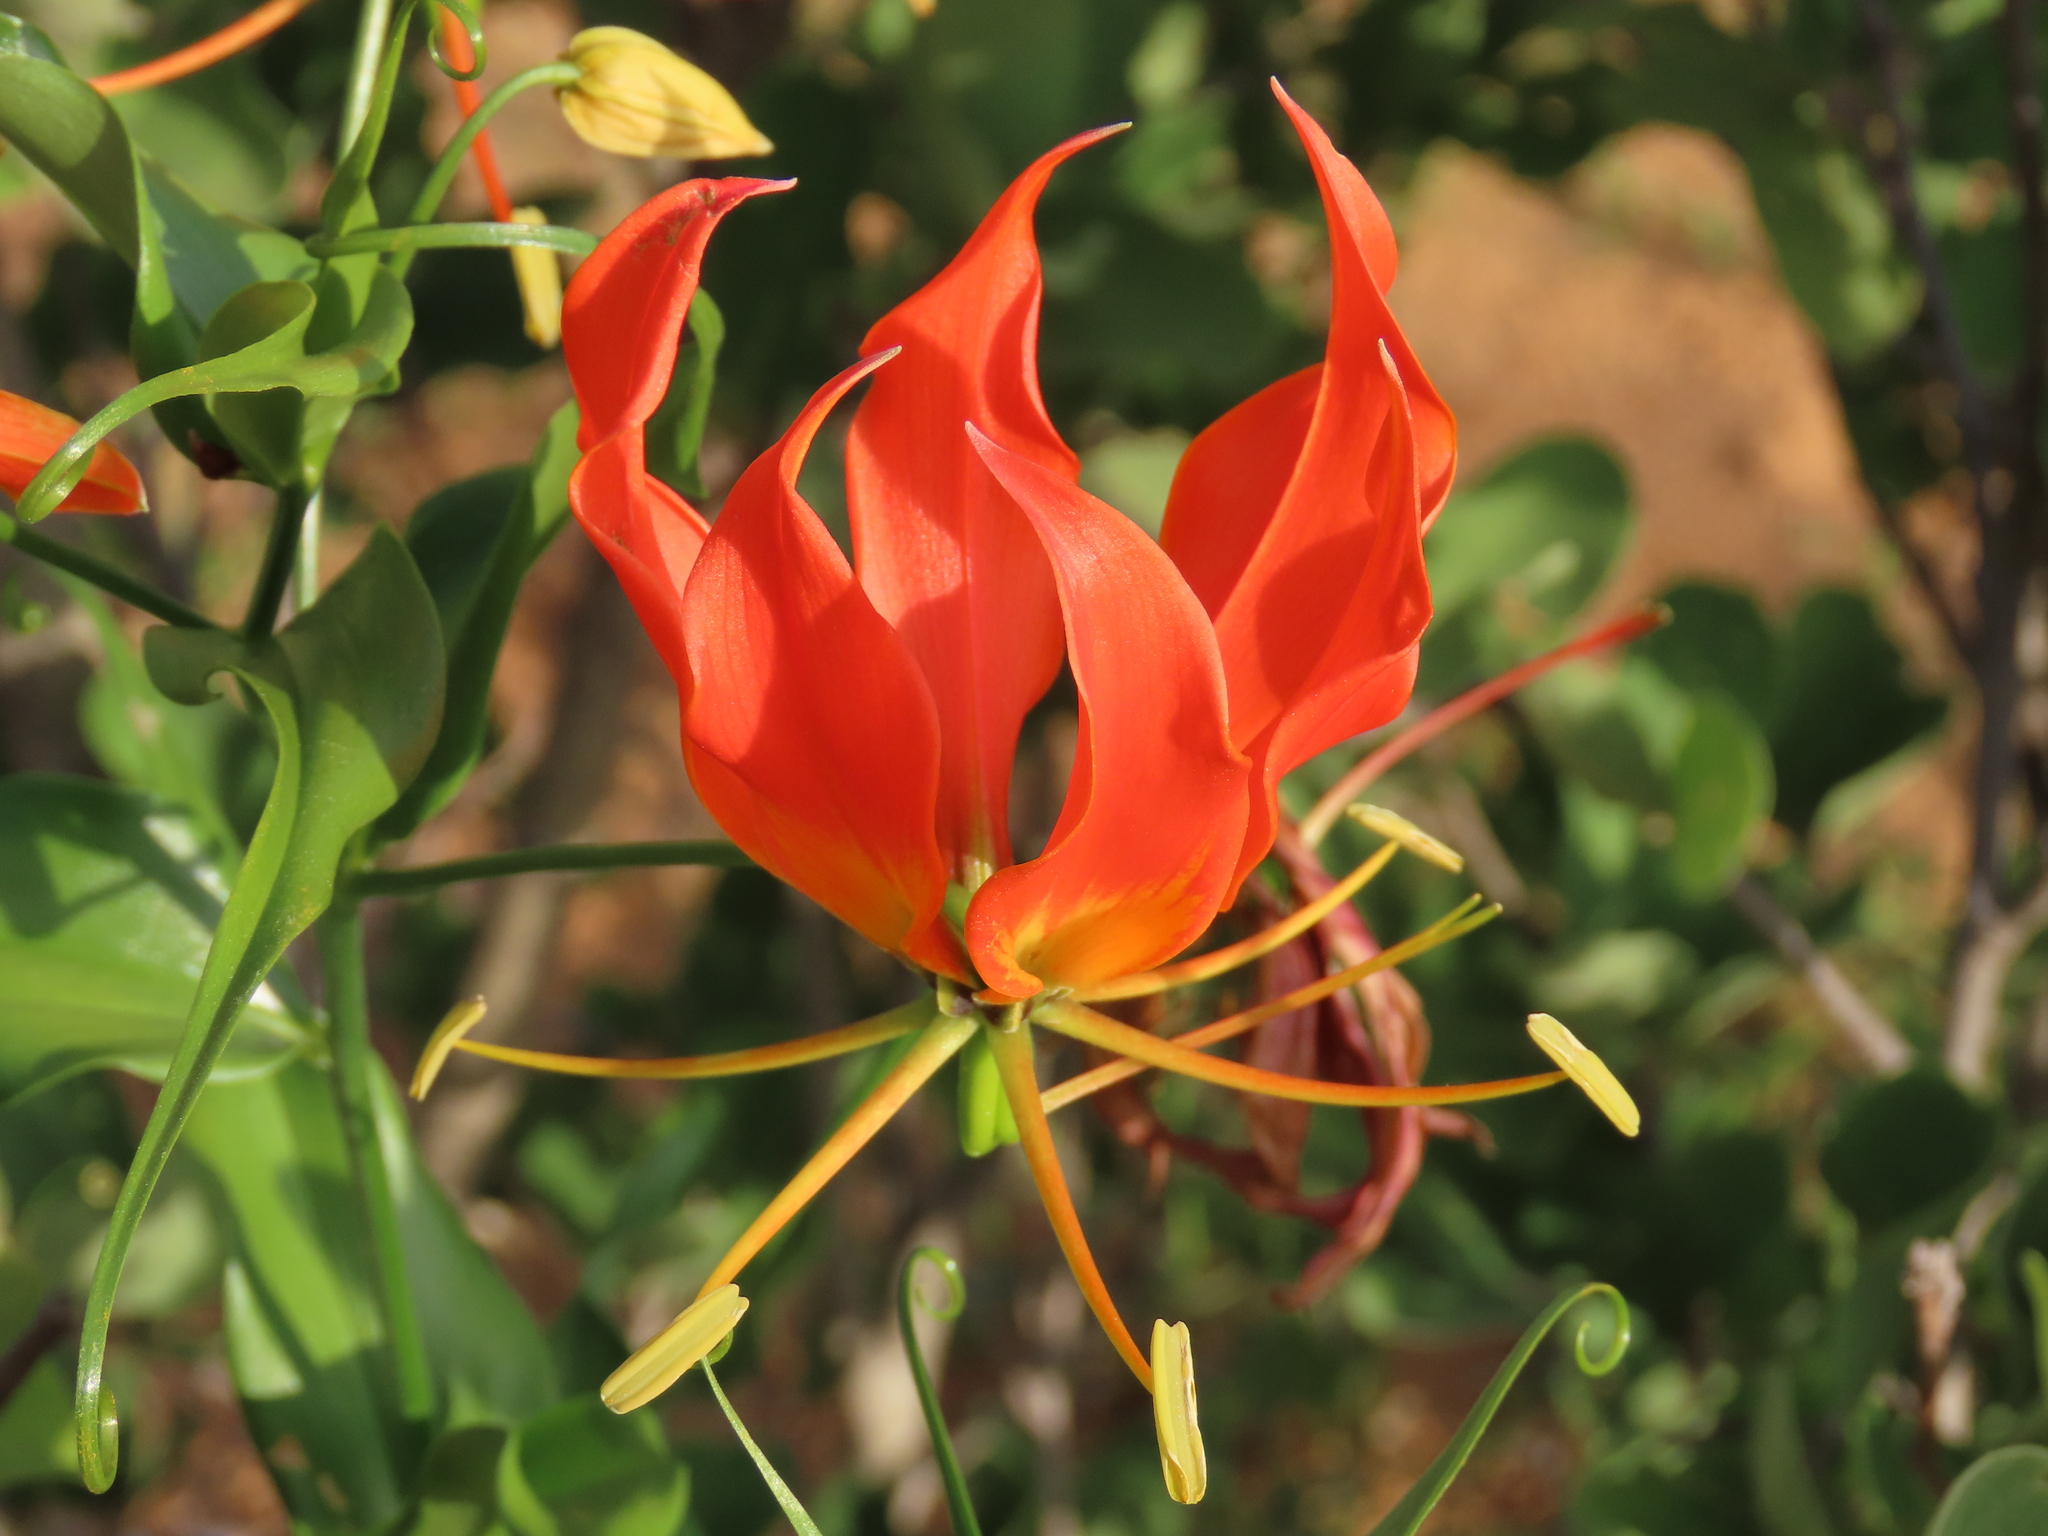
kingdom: Plantae
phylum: Tracheophyta
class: Liliopsida
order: Liliales
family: Colchicaceae
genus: Gloriosa
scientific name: Gloriosa superba
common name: Flame lily
